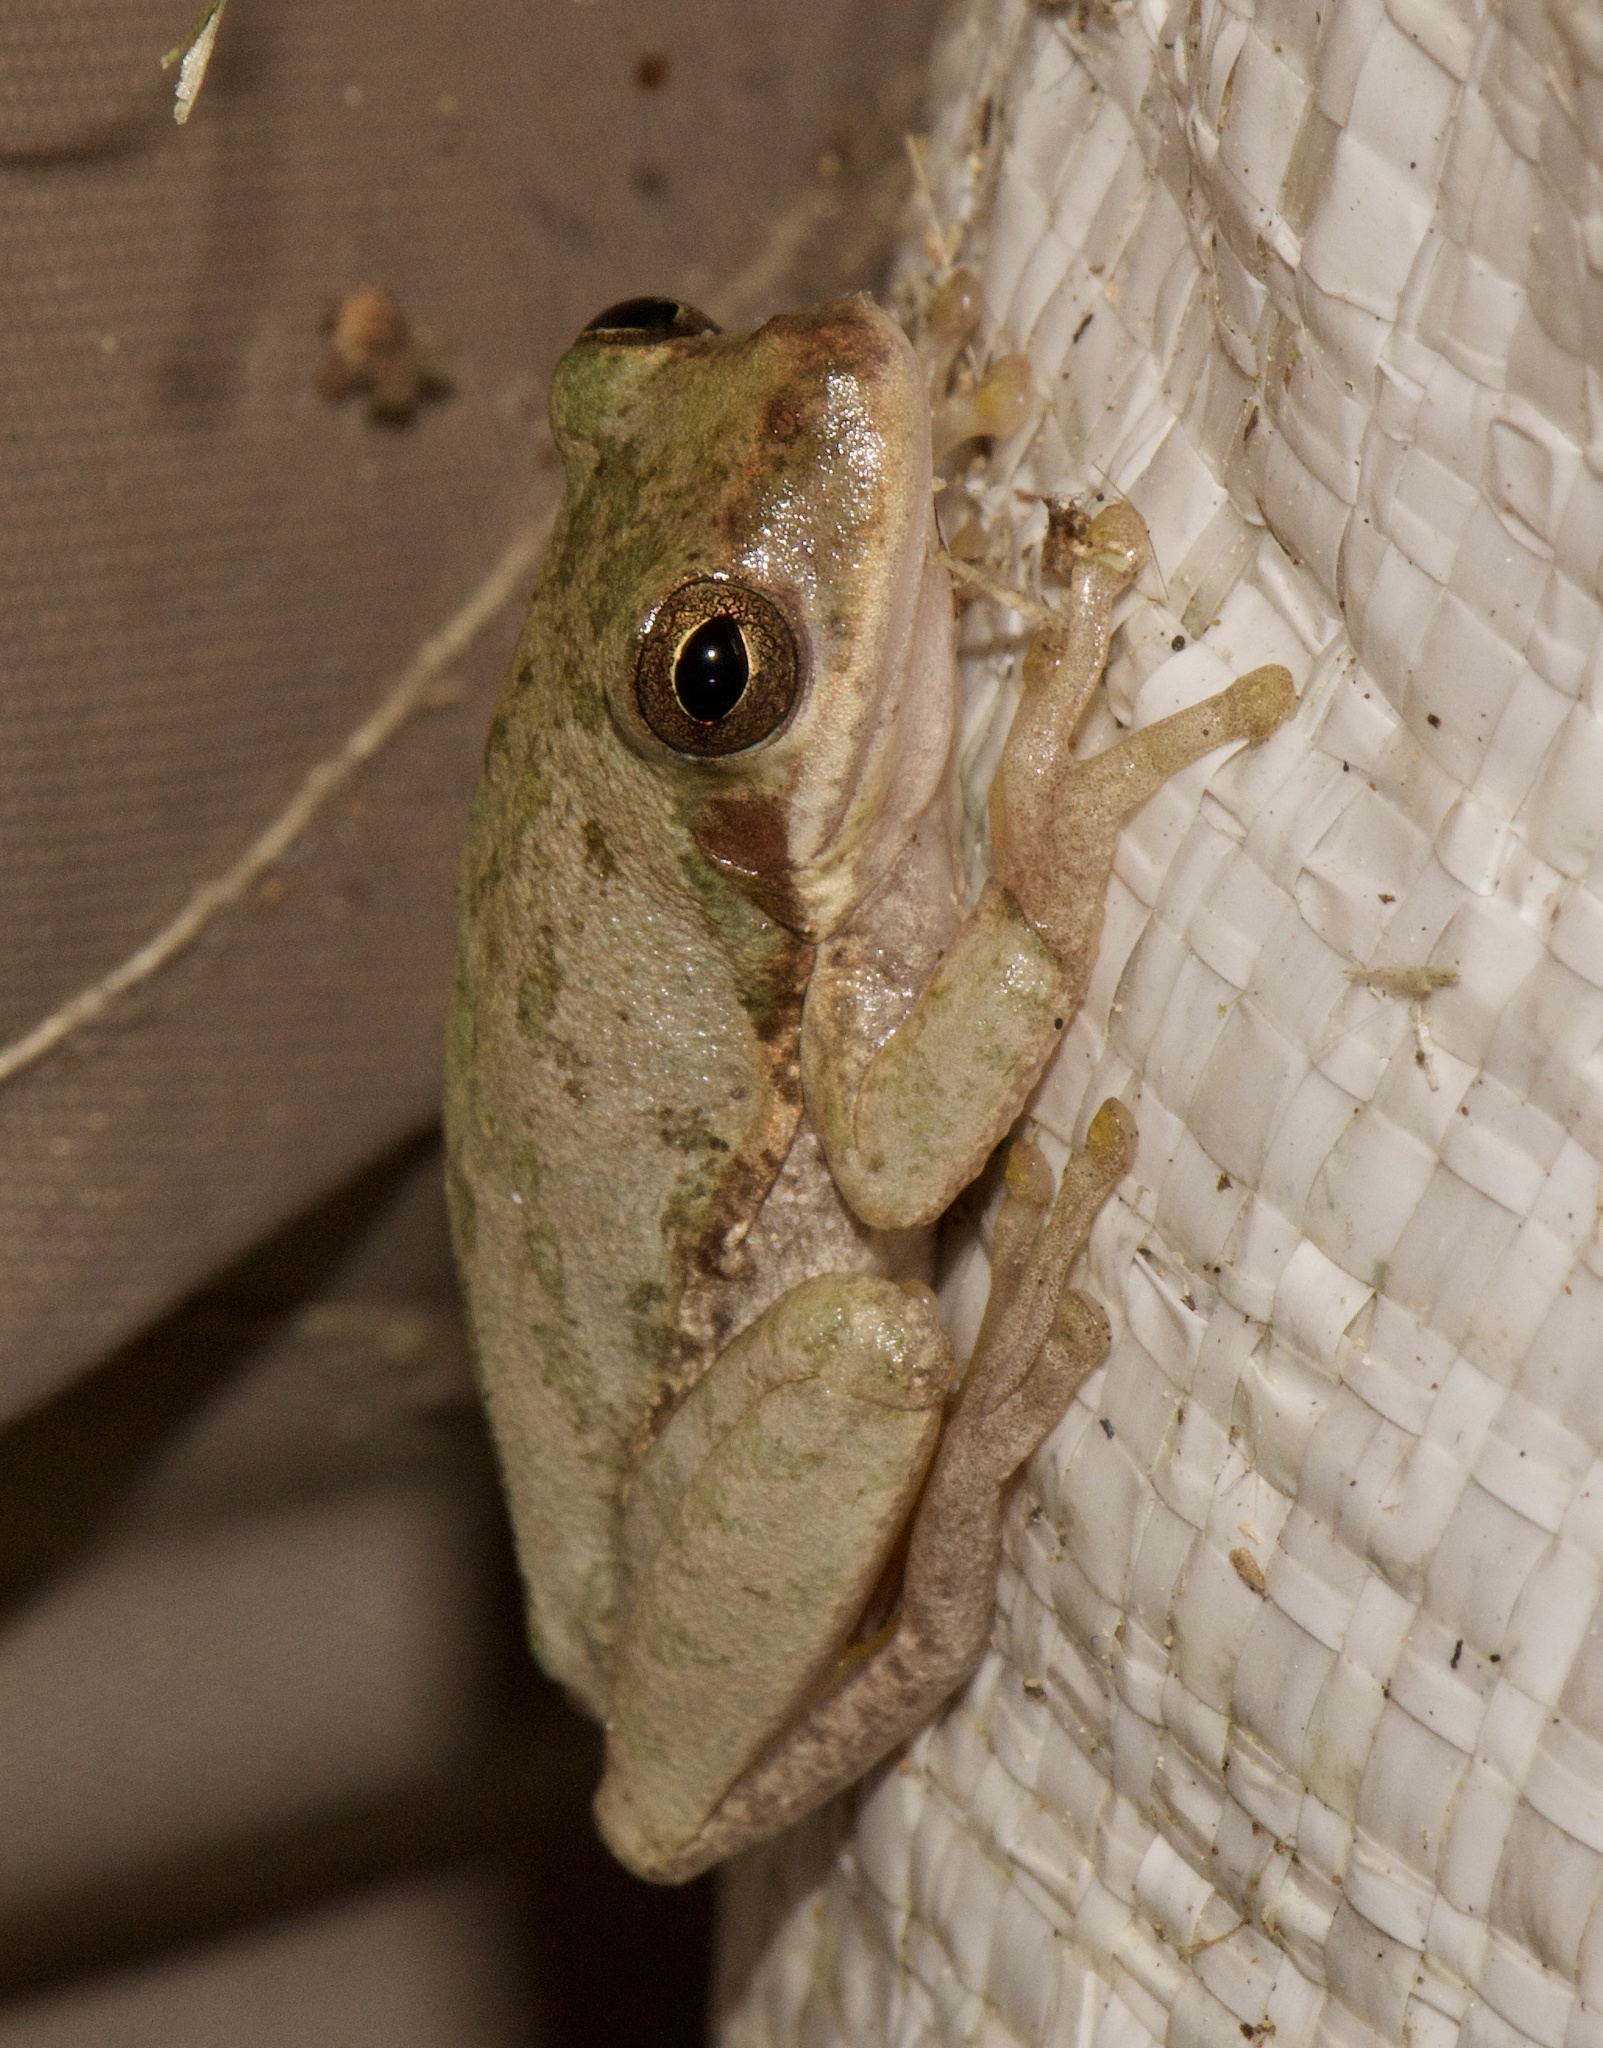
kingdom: Animalia
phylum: Chordata
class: Amphibia
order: Anura
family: Hylidae
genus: Dryophytes
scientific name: Dryophytes squirellus
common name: Squirrel treefrog
